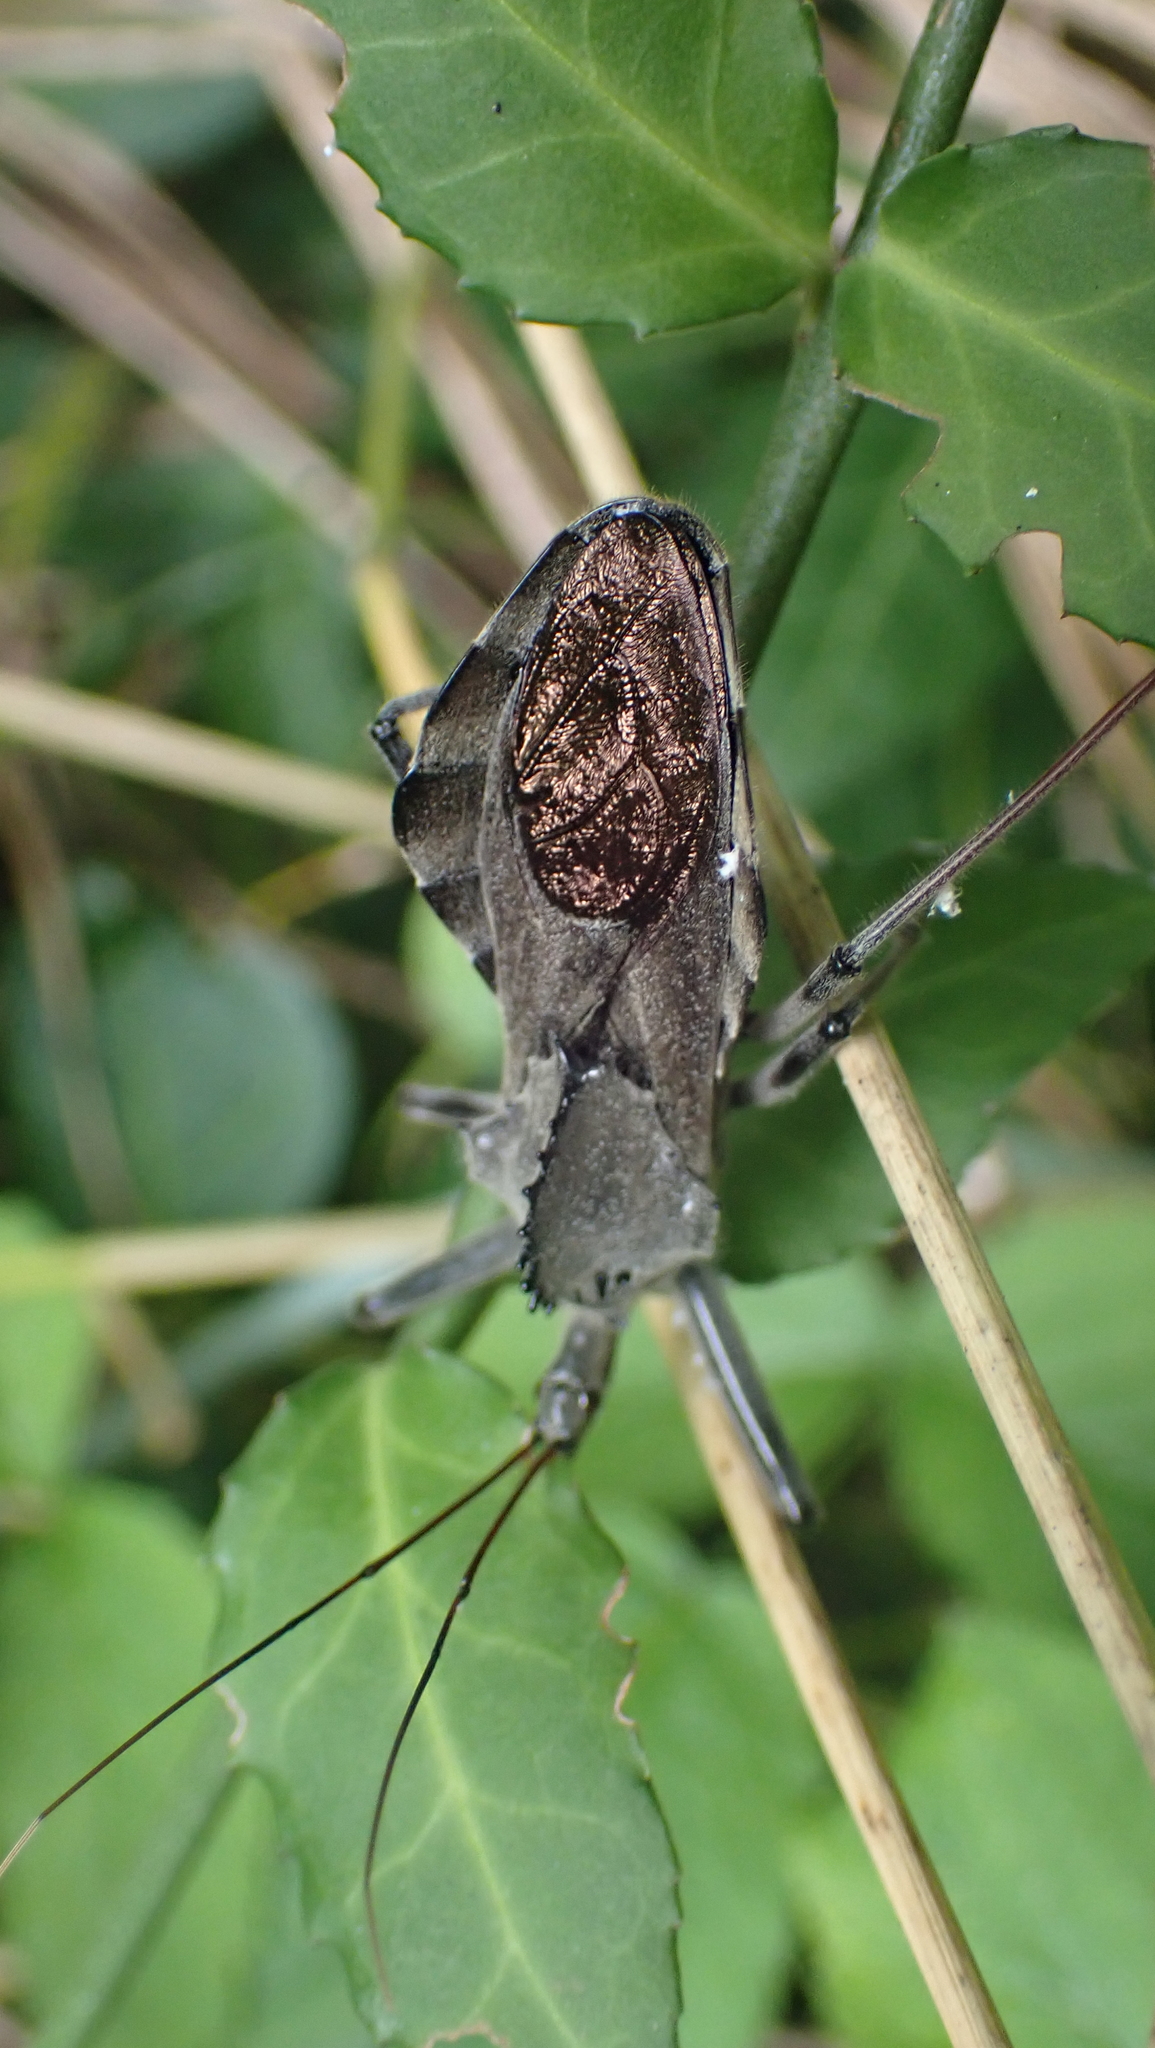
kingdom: Animalia
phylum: Arthropoda
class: Insecta
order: Hemiptera
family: Reduviidae
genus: Arilus
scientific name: Arilus cristatus
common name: North american wheel bug
